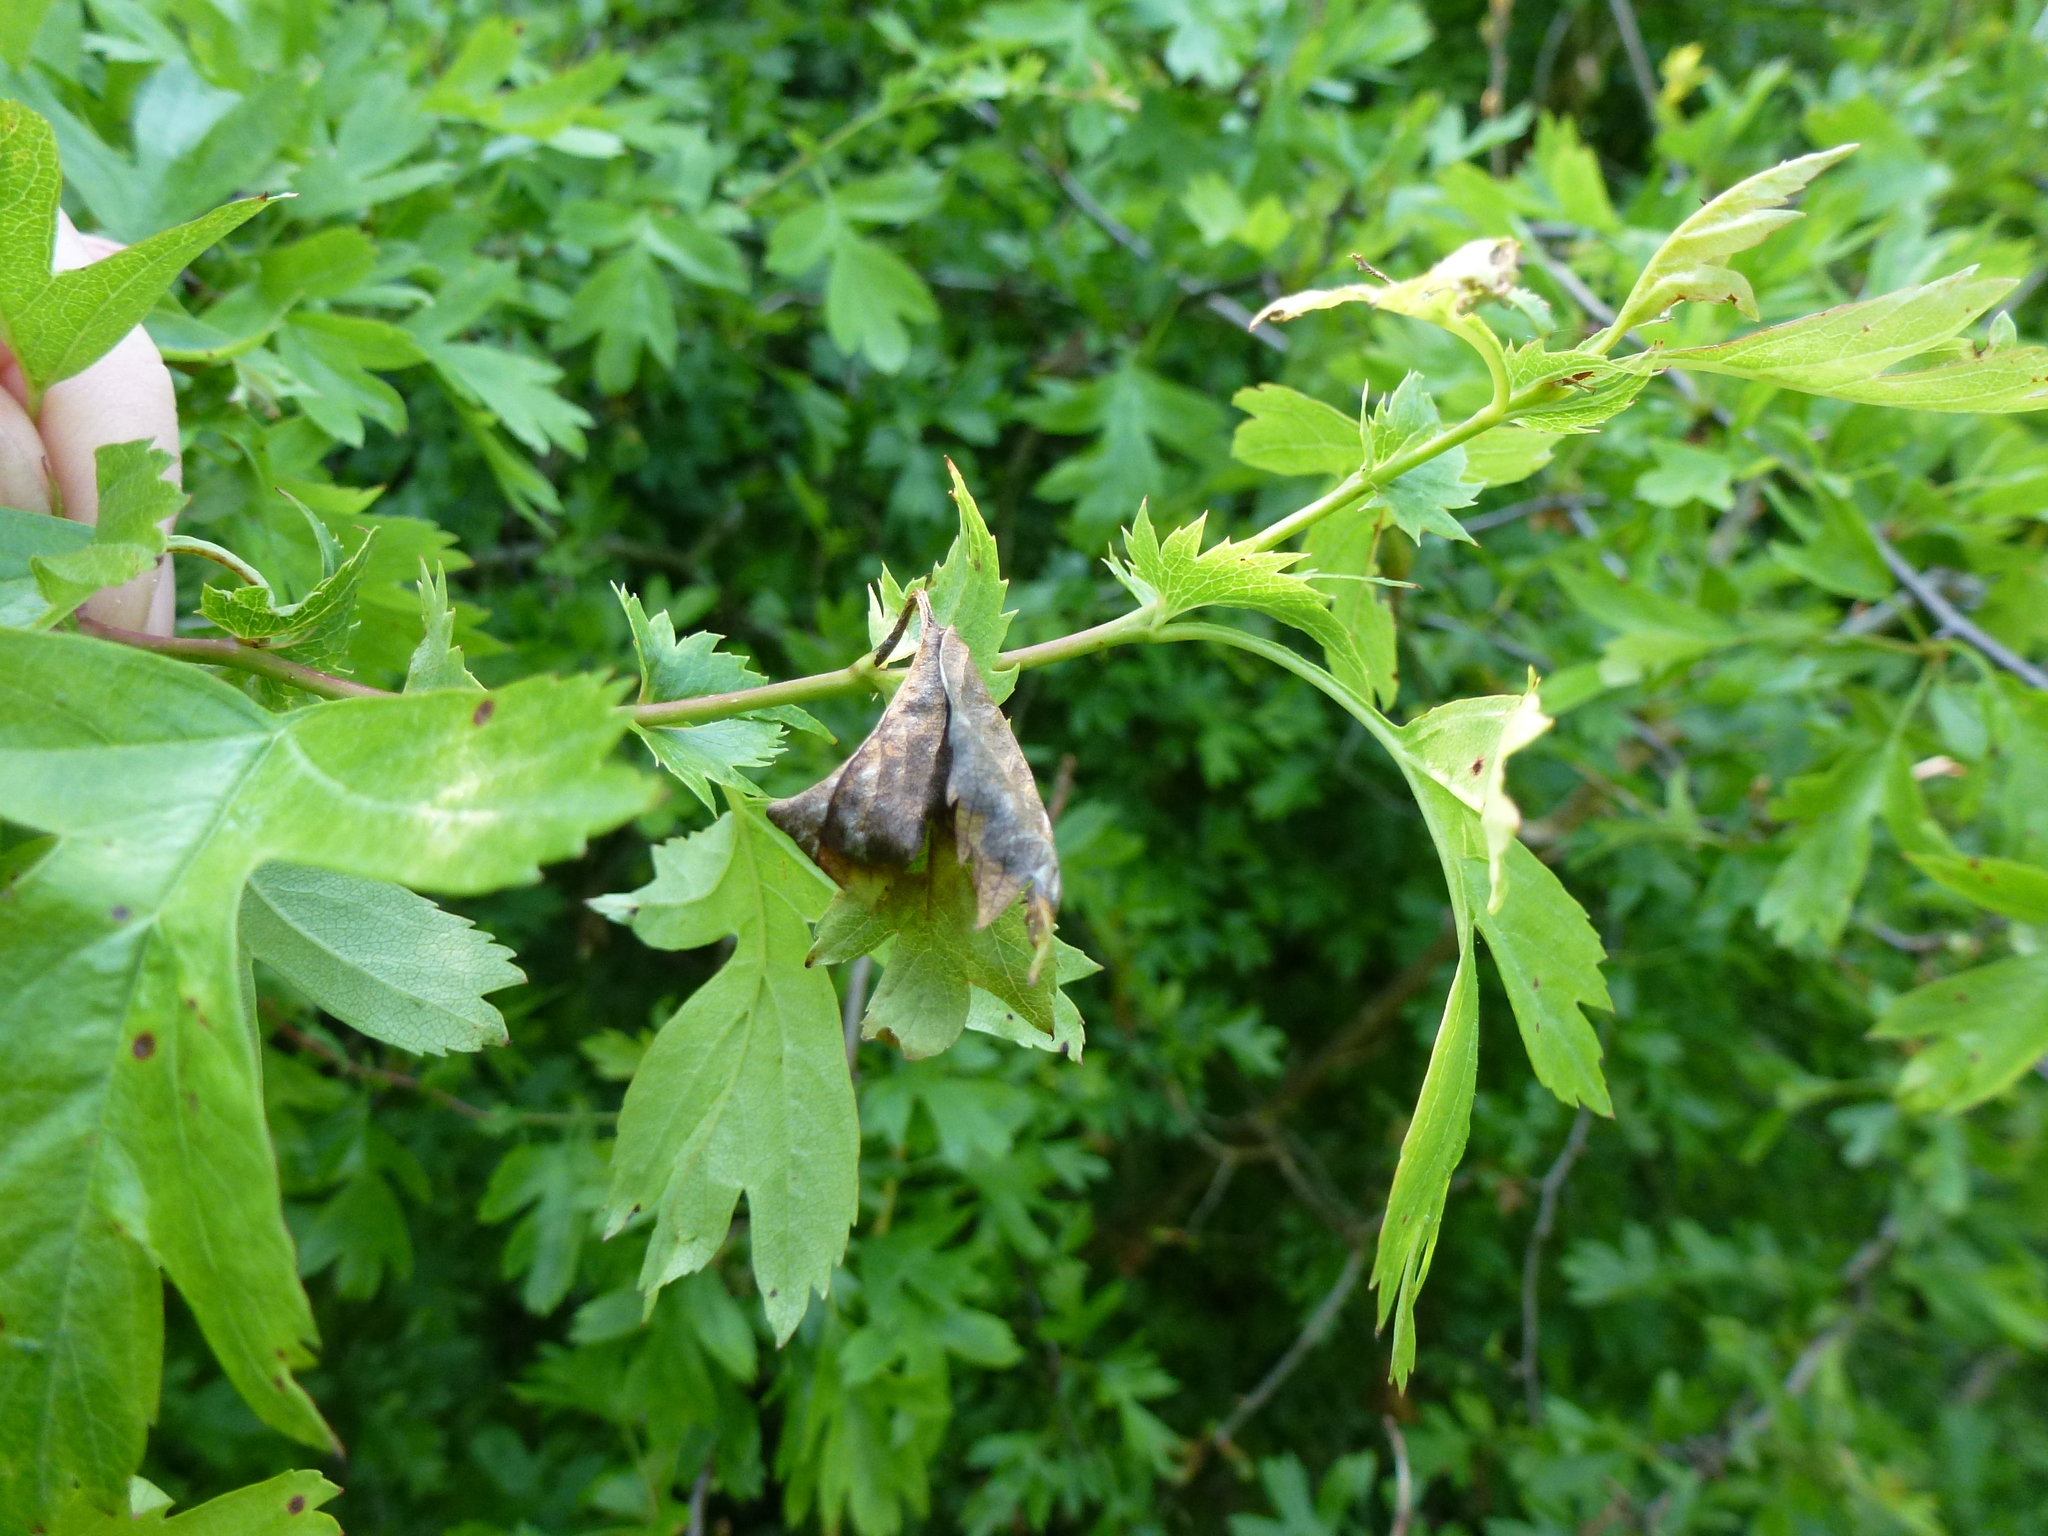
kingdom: Fungi
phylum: Ascomycota
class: Leotiomycetes
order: Helotiales
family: Sclerotiniaceae
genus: Monilinia
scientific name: Monilinia johnsonii
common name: Haw goblet
